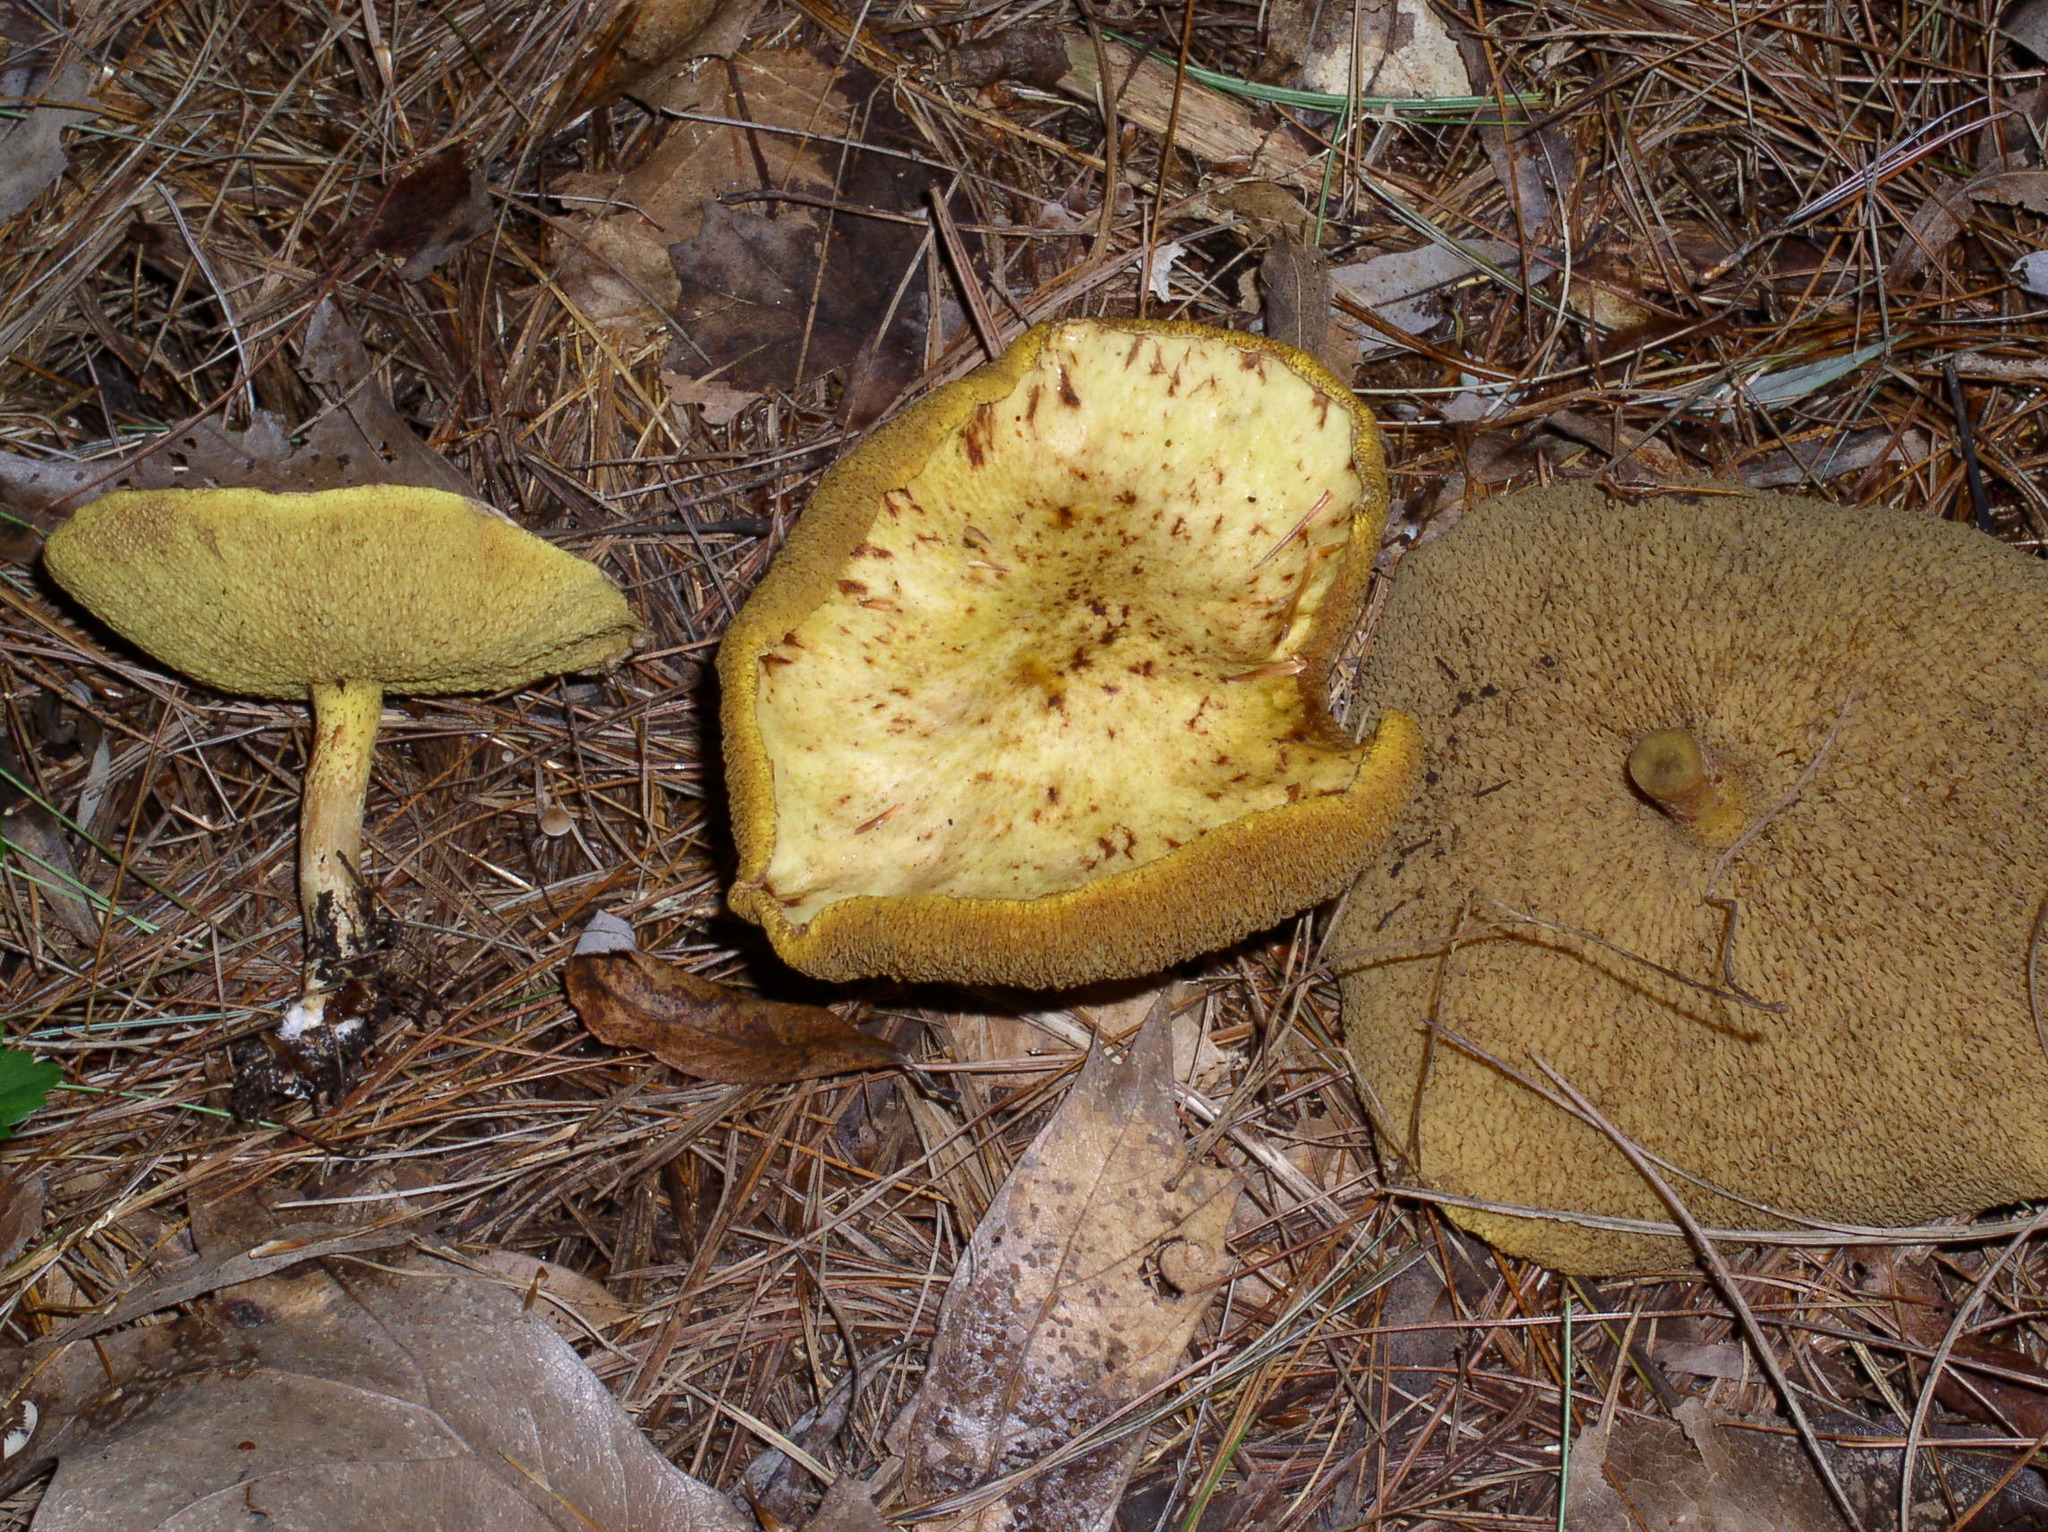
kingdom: Fungi
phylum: Basidiomycota
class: Agaricomycetes
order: Boletales
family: Suillaceae
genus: Suillus
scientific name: Suillus americanus
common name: Chicken fat mushroom
